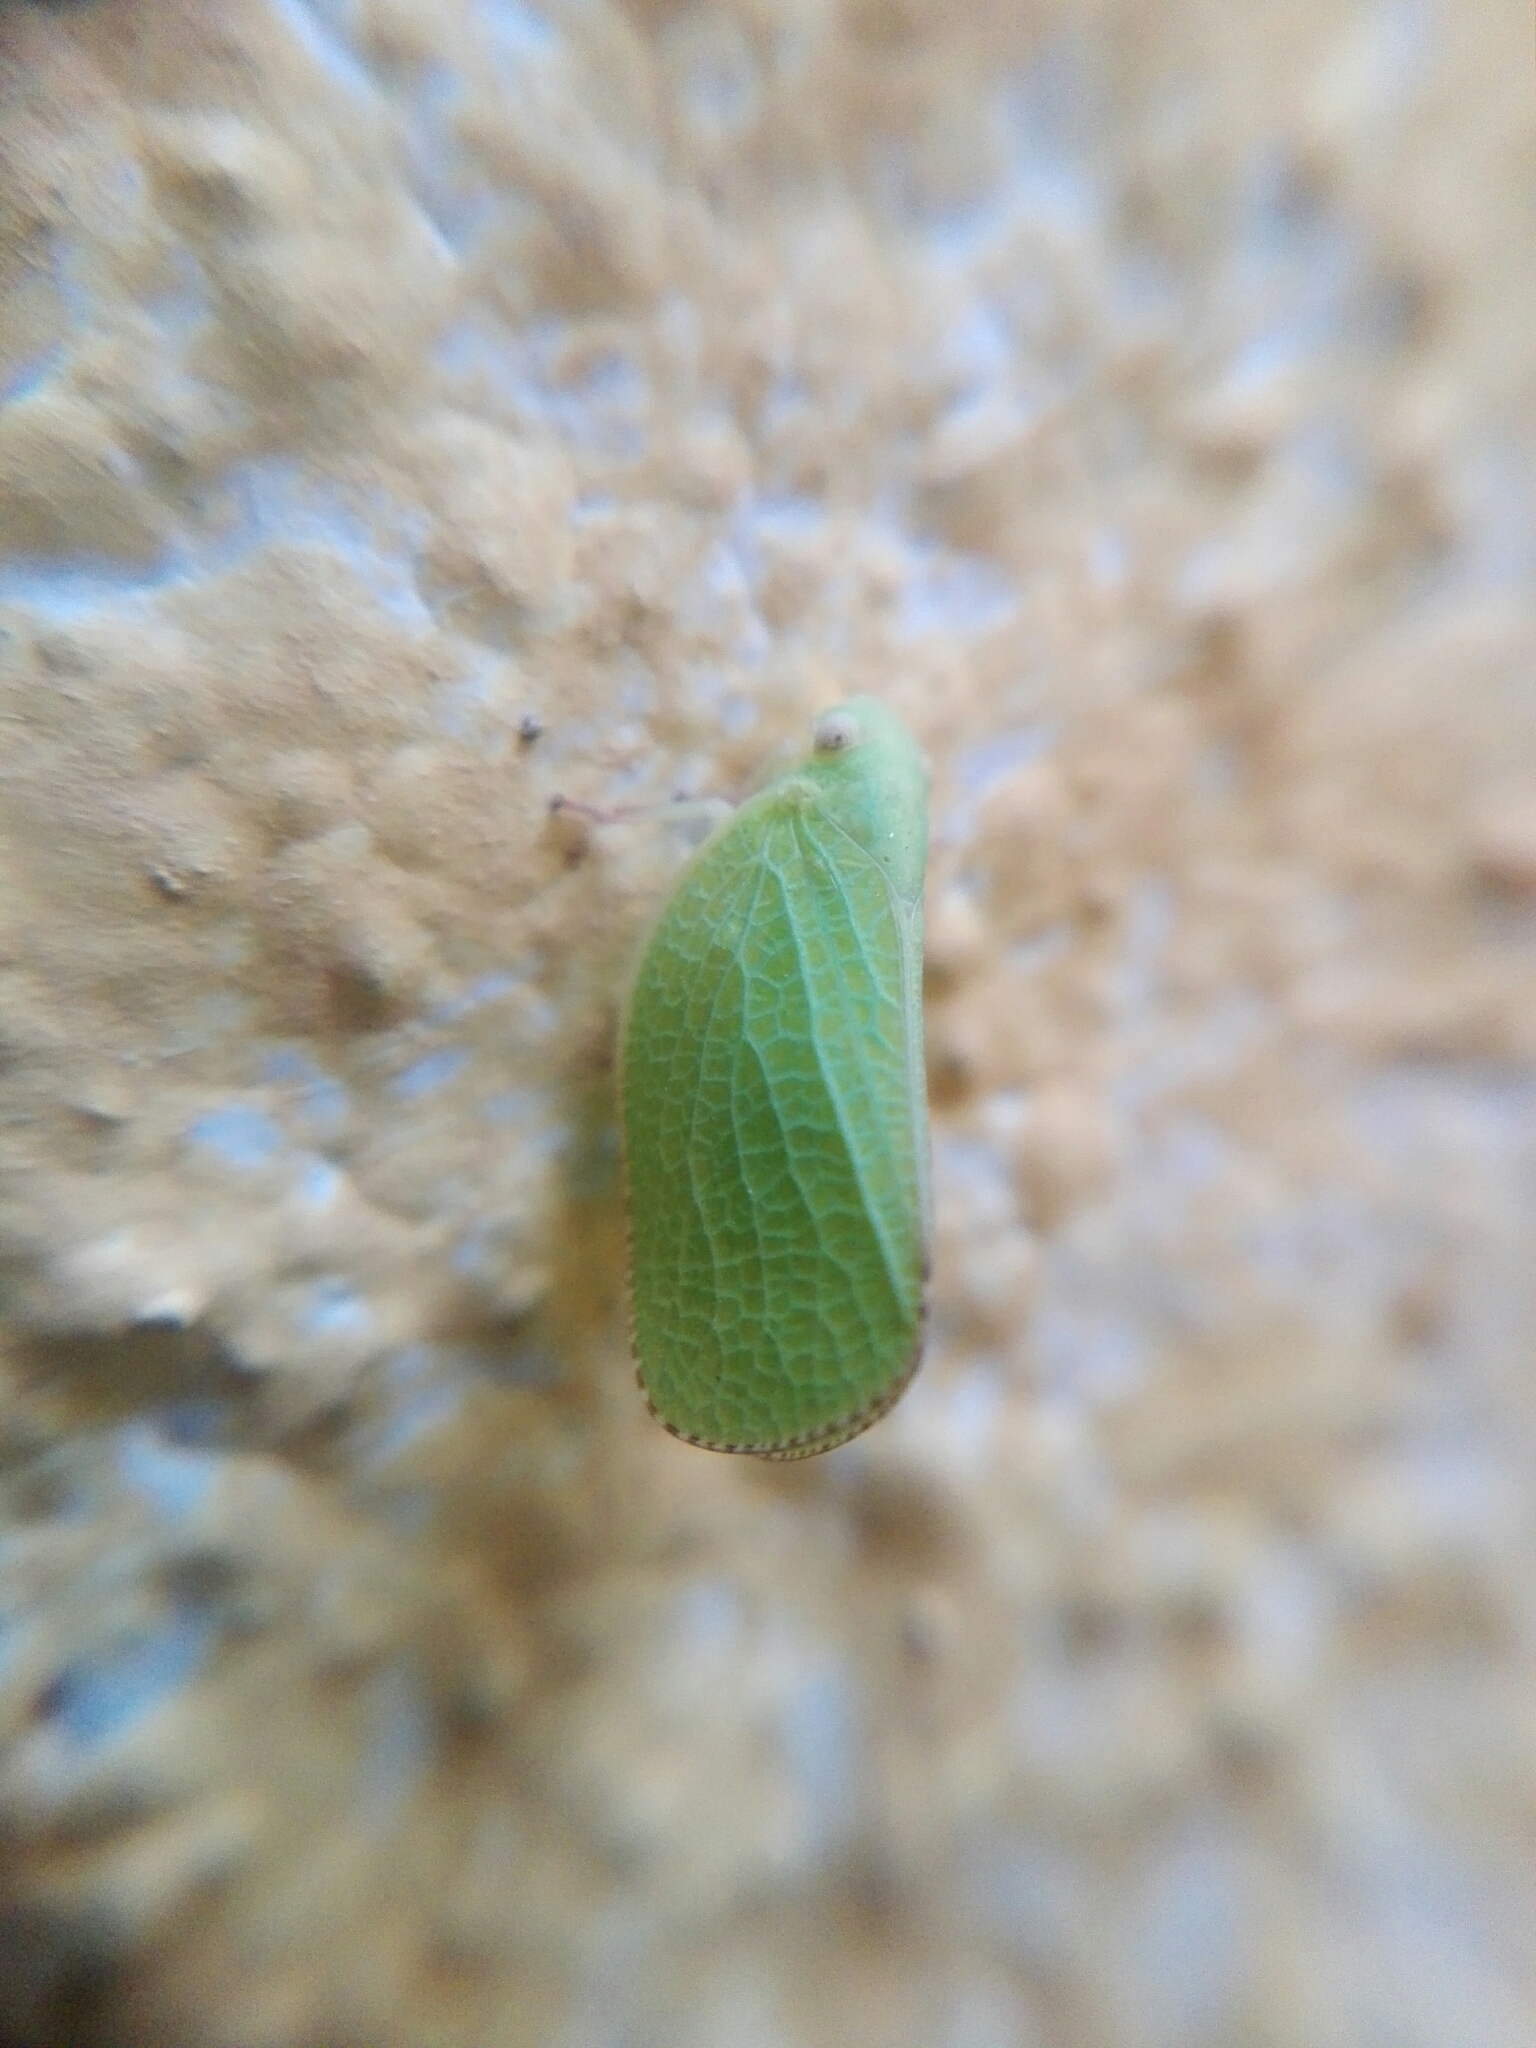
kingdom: Animalia
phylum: Arthropoda
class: Insecta
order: Hemiptera
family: Acanaloniidae
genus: Acanalonia
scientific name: Acanalonia conica
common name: Green cone-headed planthopper
